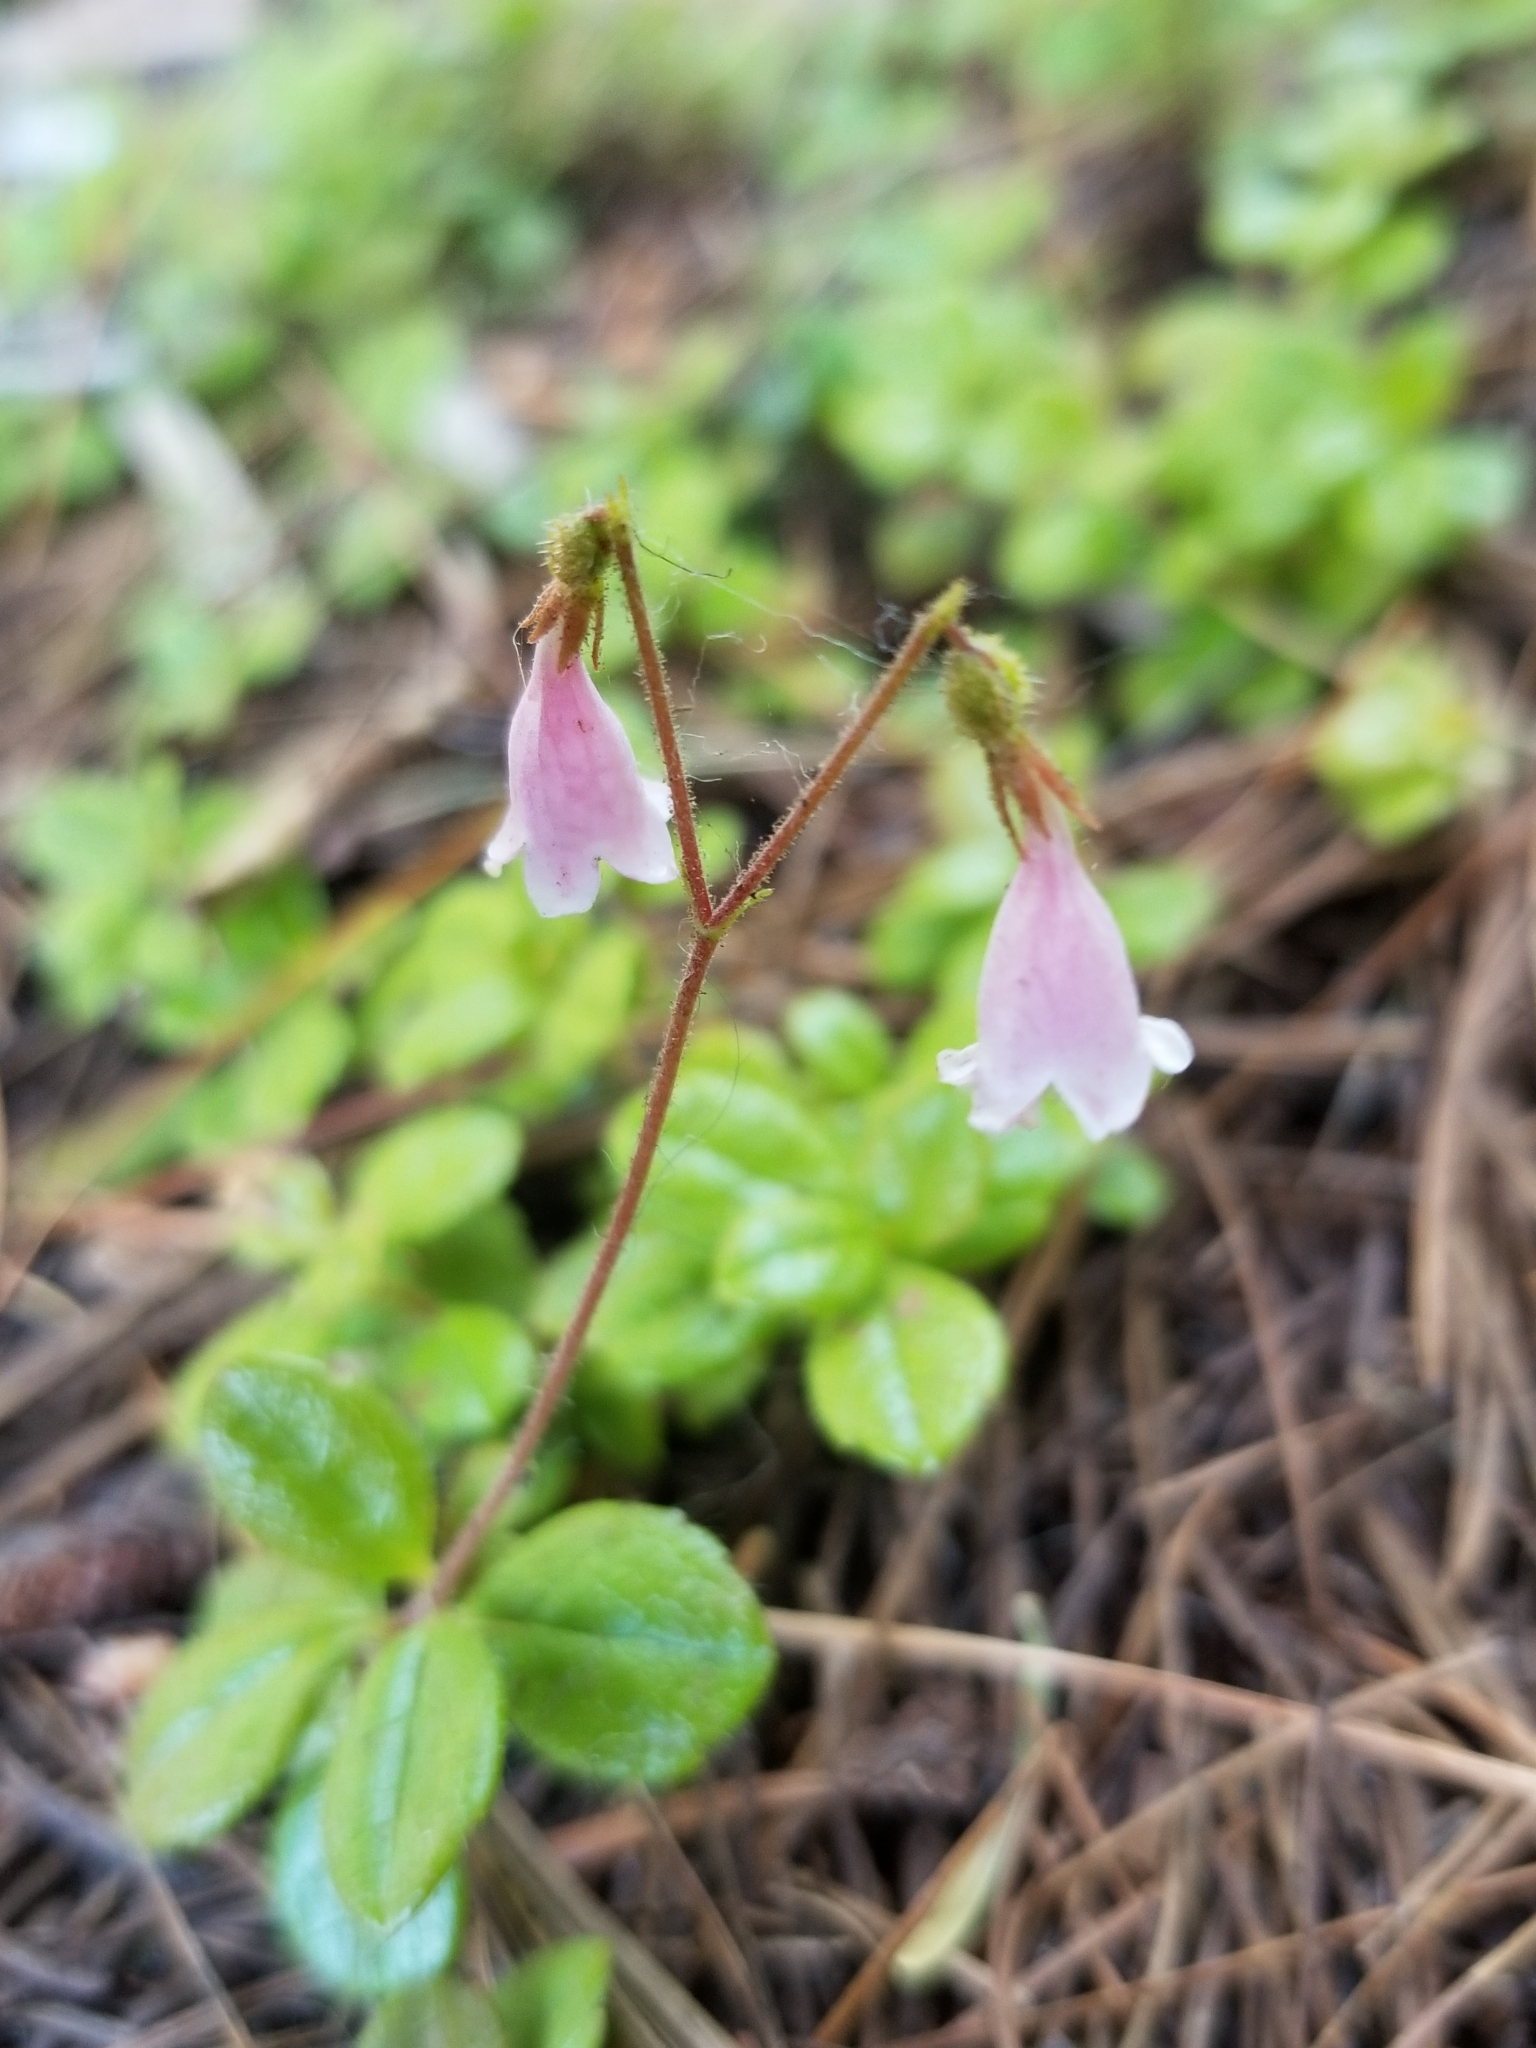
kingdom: Plantae
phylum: Tracheophyta
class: Magnoliopsida
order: Dipsacales
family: Caprifoliaceae
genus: Linnaea
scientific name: Linnaea borealis
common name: Twinflower
